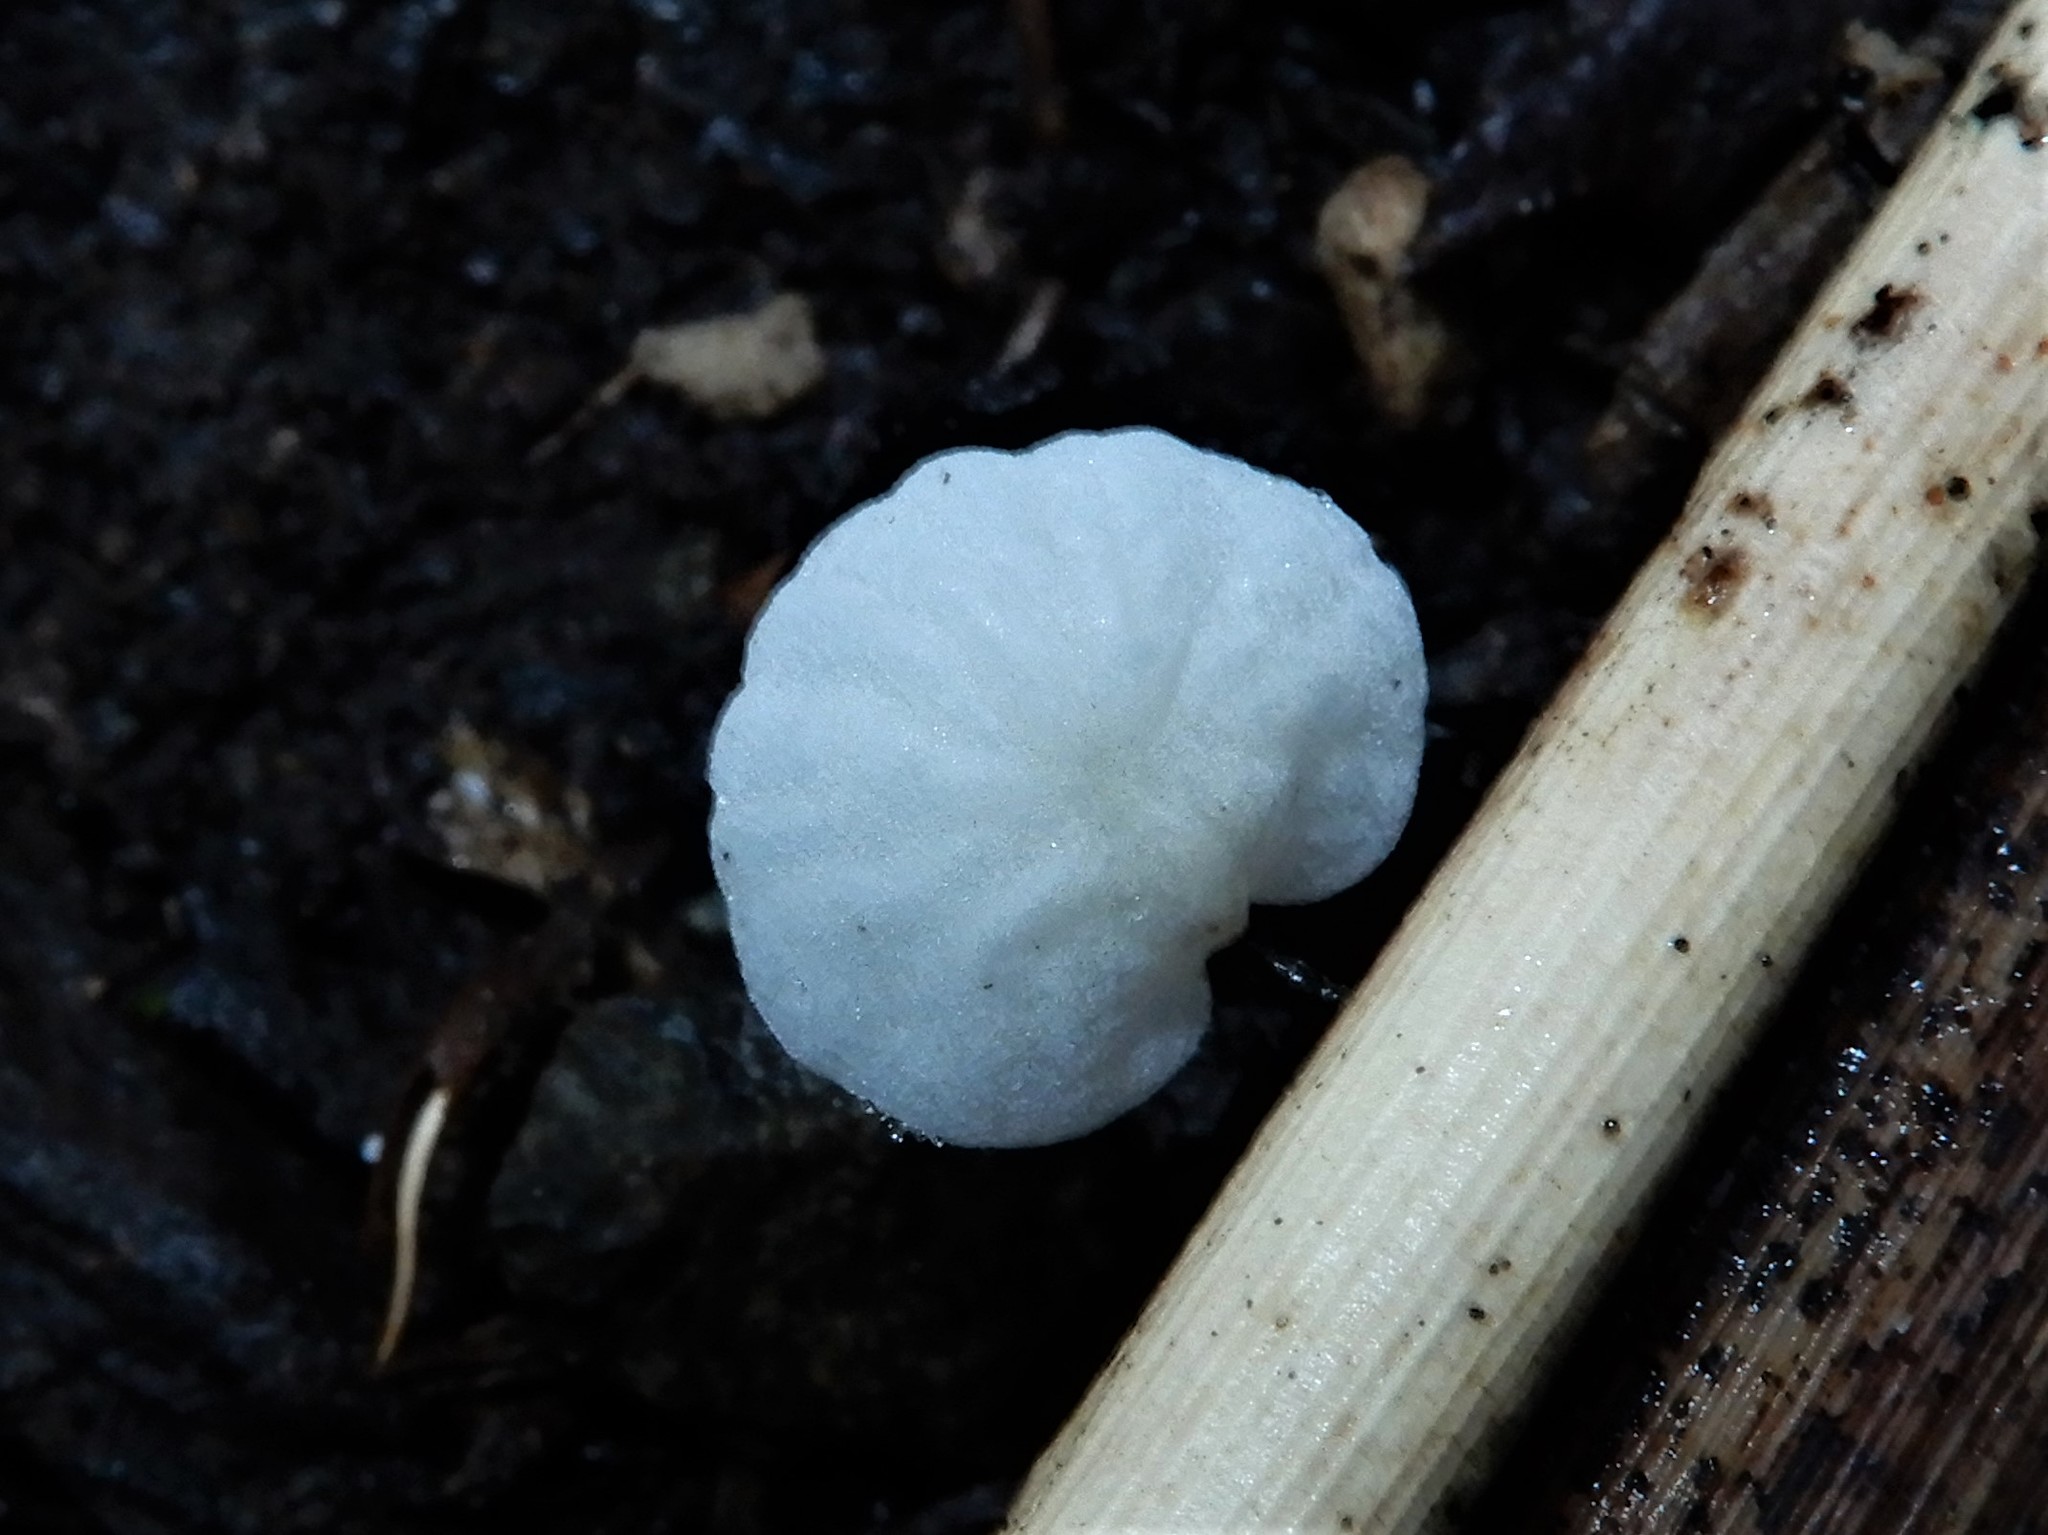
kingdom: Fungi
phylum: Basidiomycota
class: Agaricomycetes
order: Agaricales
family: Marasmiaceae
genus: Campanella
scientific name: Campanella
